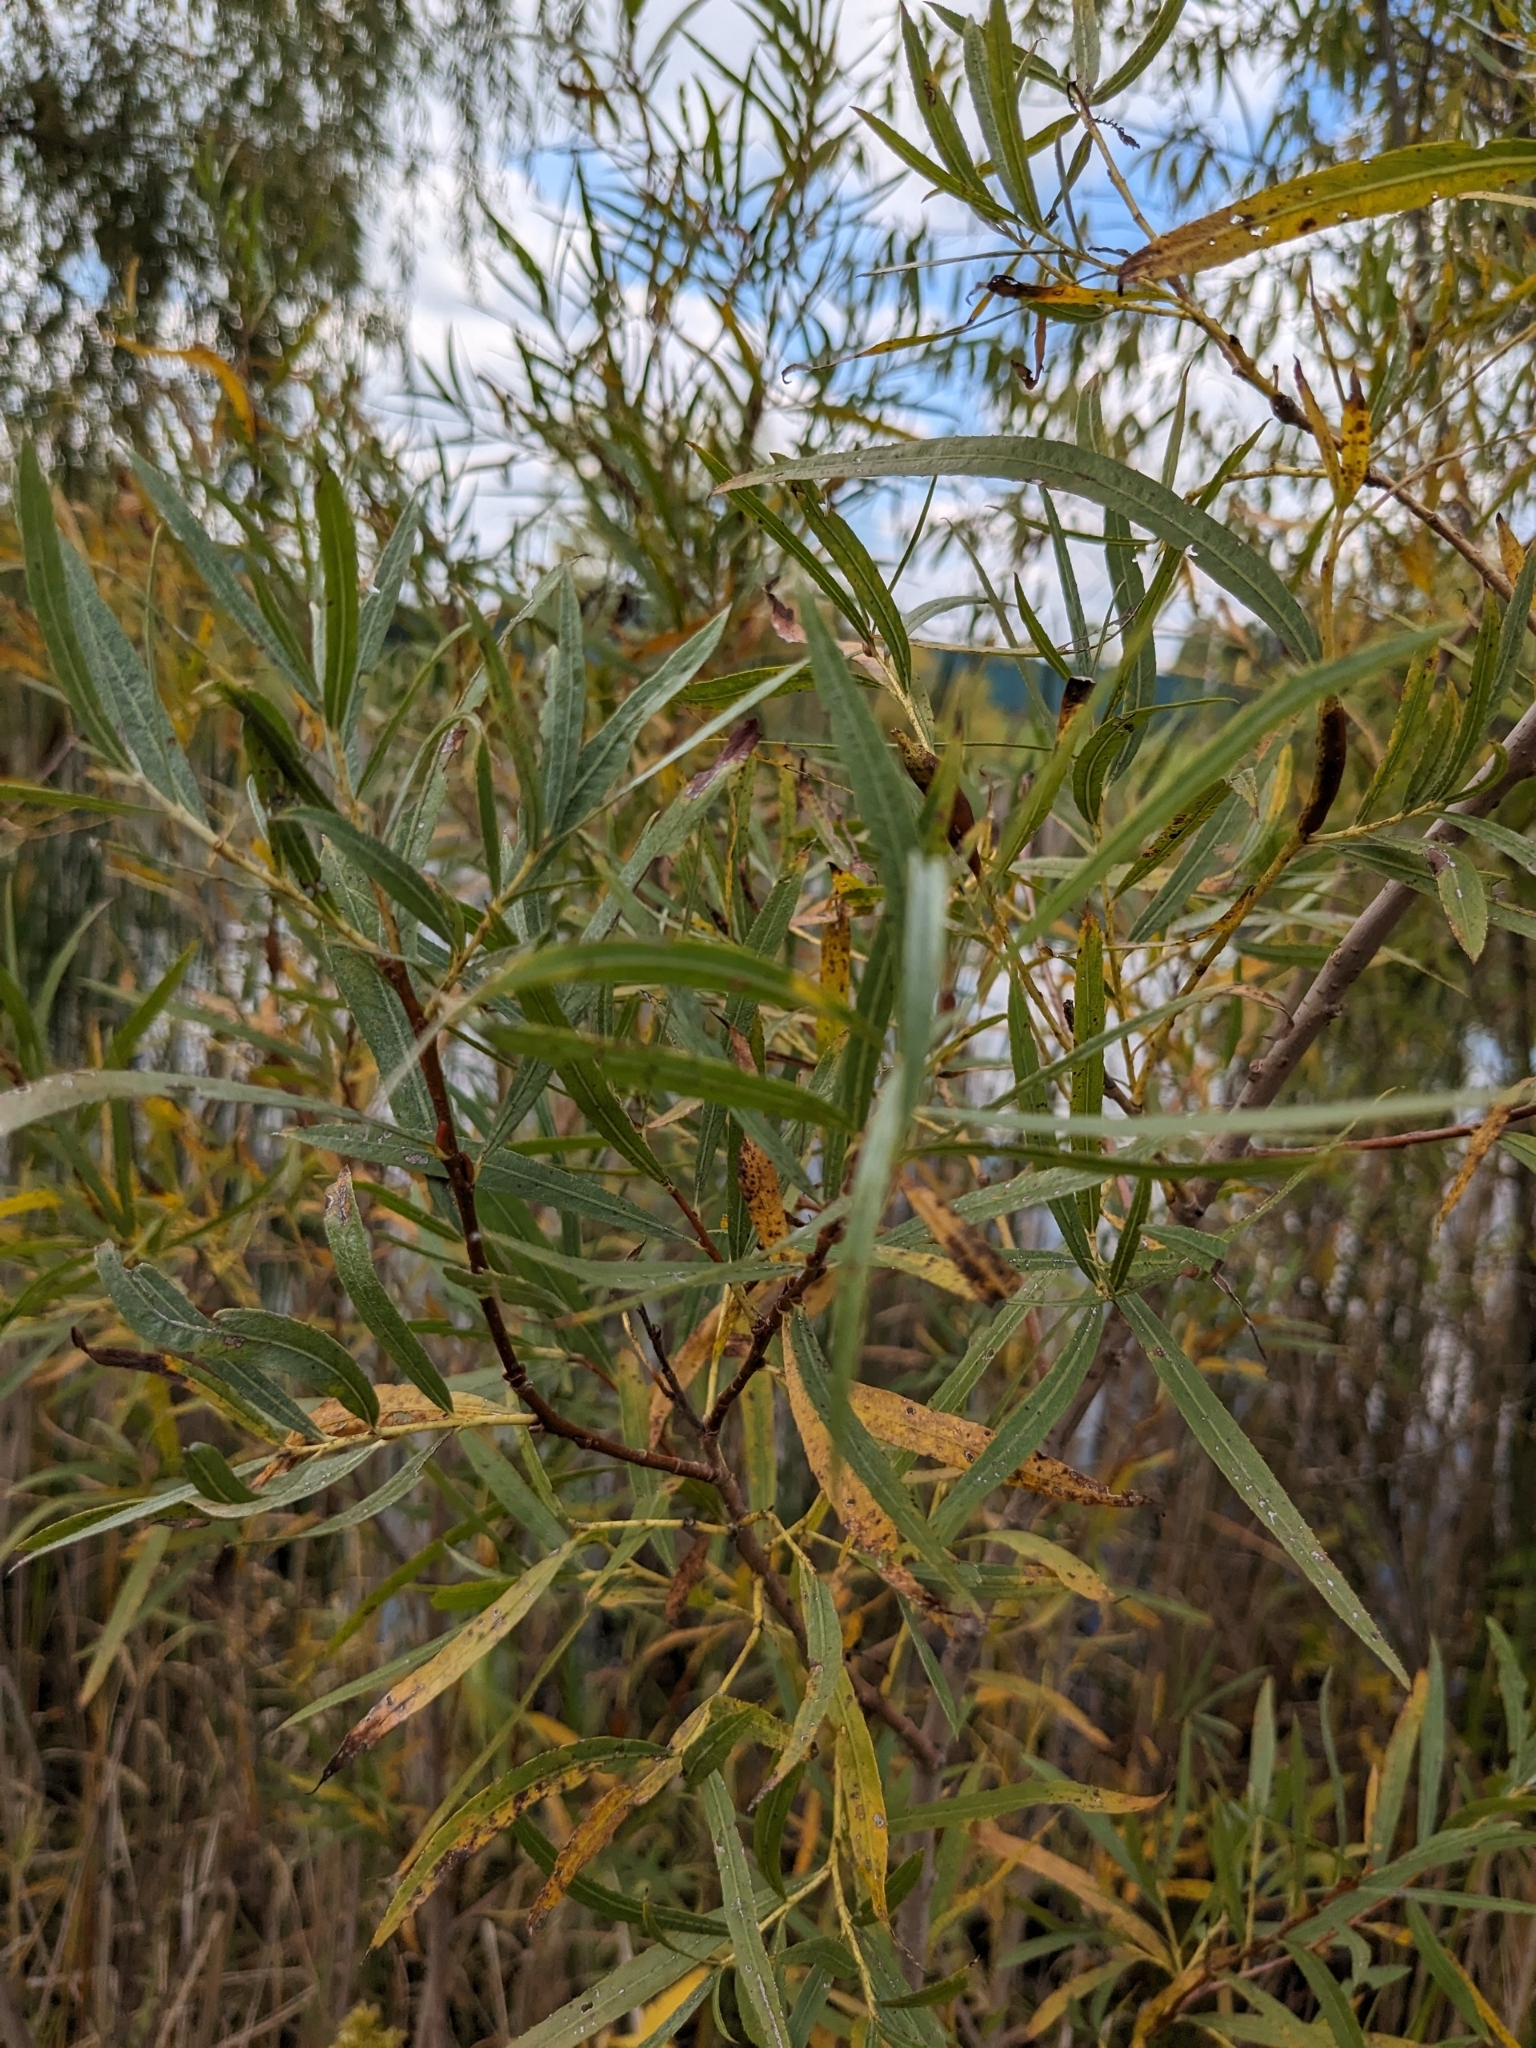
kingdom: Plantae
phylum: Tracheophyta
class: Magnoliopsida
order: Malpighiales
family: Salicaceae
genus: Salix
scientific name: Salix interior
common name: Sandbar willow
